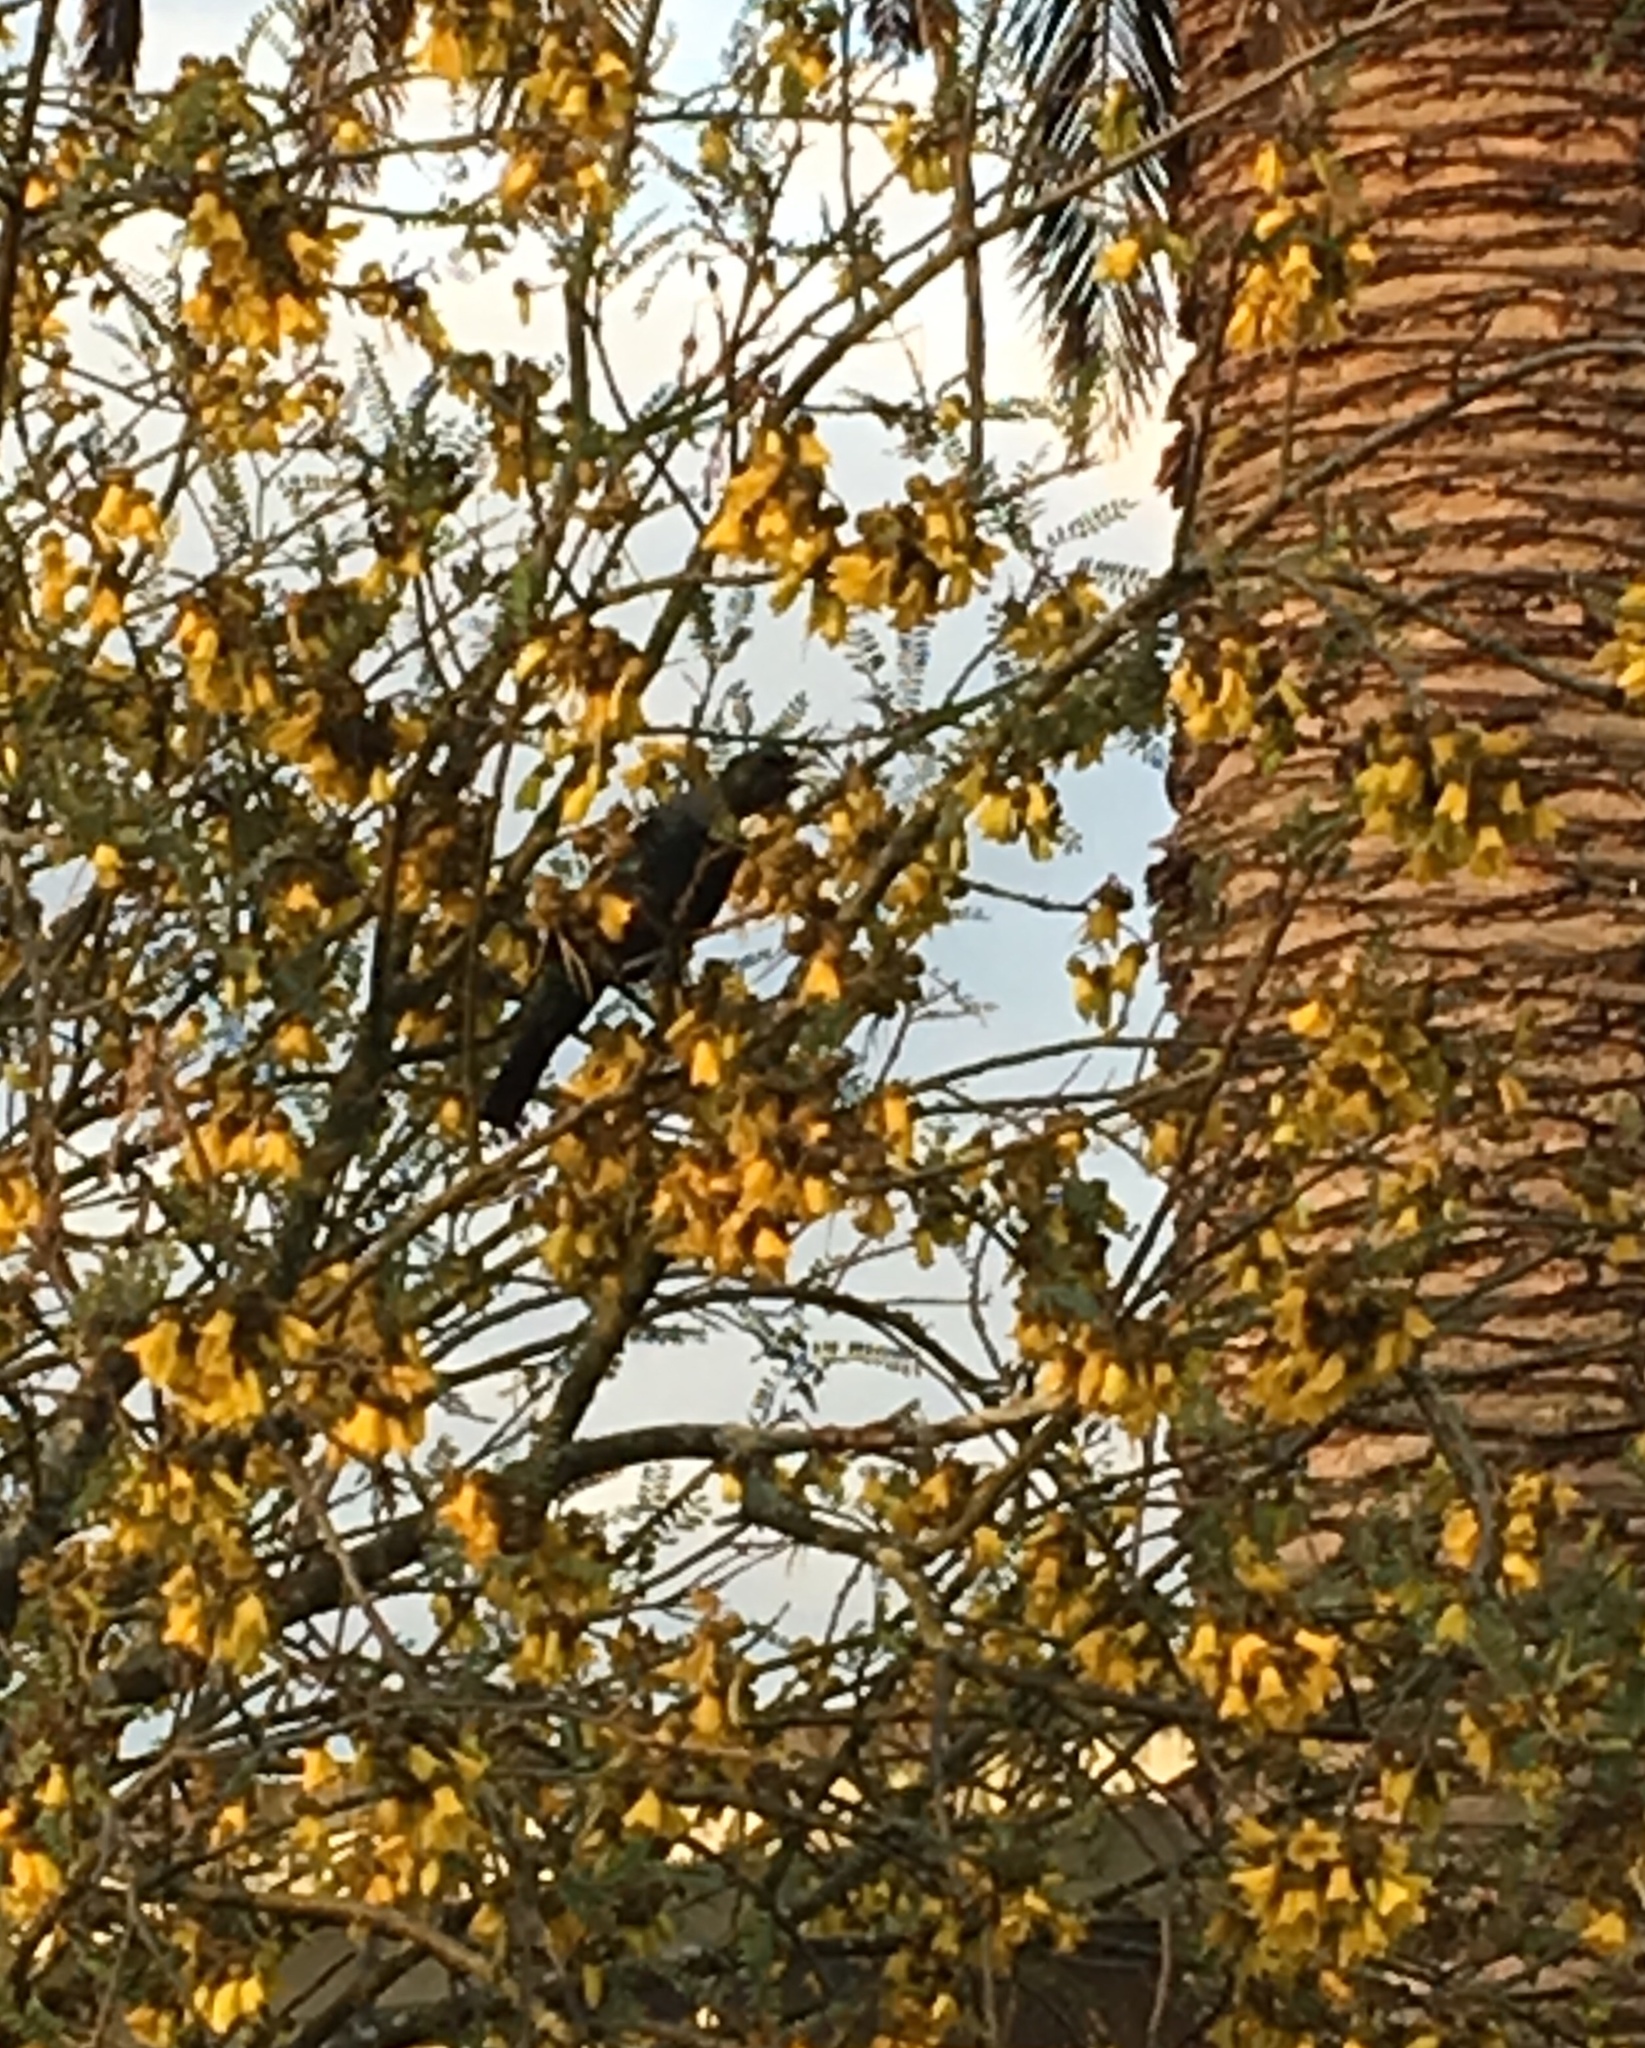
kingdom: Animalia
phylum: Chordata
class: Aves
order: Passeriformes
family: Meliphagidae
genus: Prosthemadera
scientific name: Prosthemadera novaeseelandiae
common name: Tui
